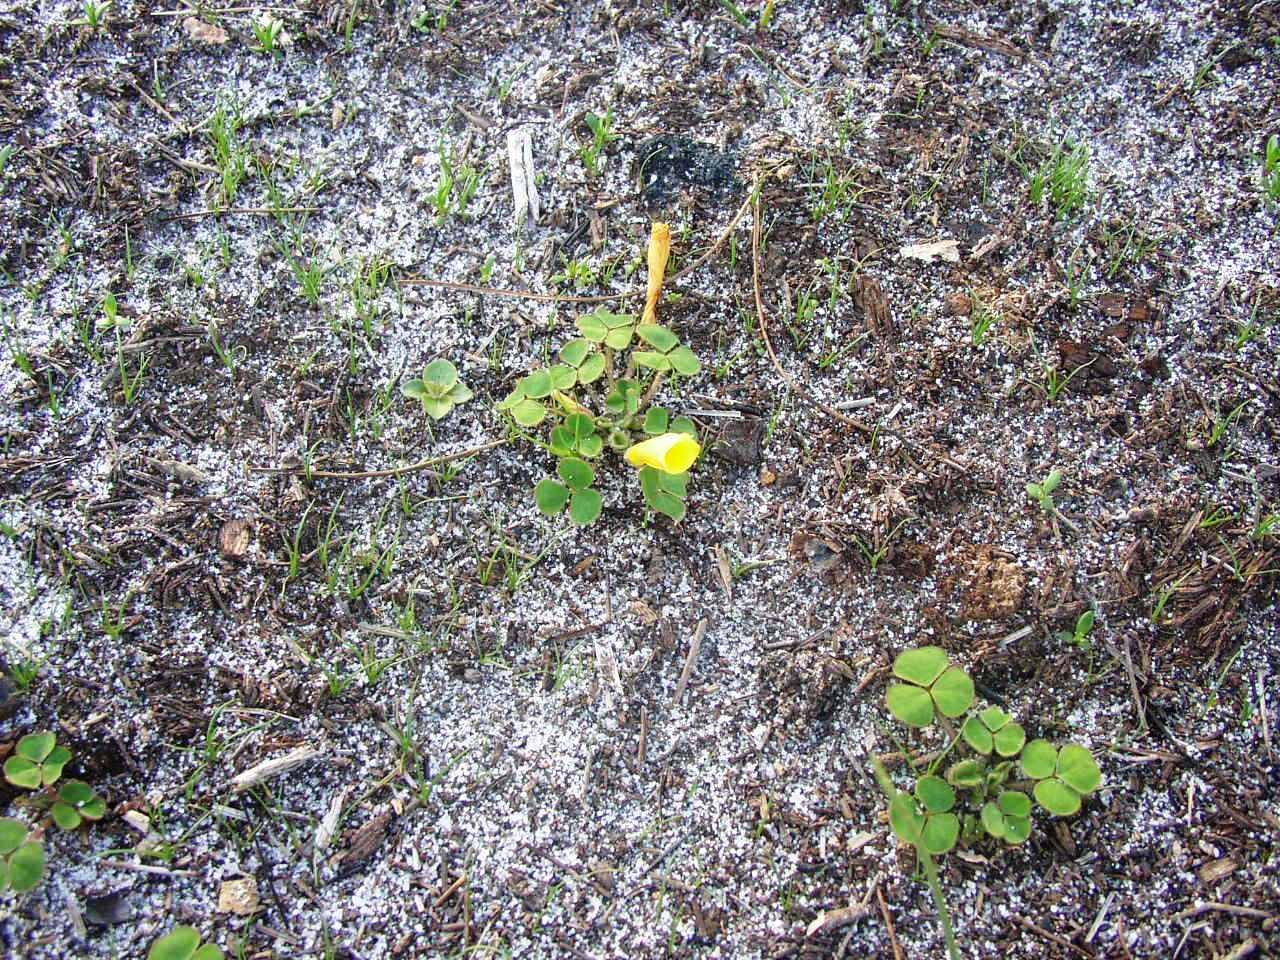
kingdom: Plantae
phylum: Tracheophyta
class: Magnoliopsida
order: Oxalidales
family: Oxalidaceae
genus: Oxalis
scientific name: Oxalis luteola
